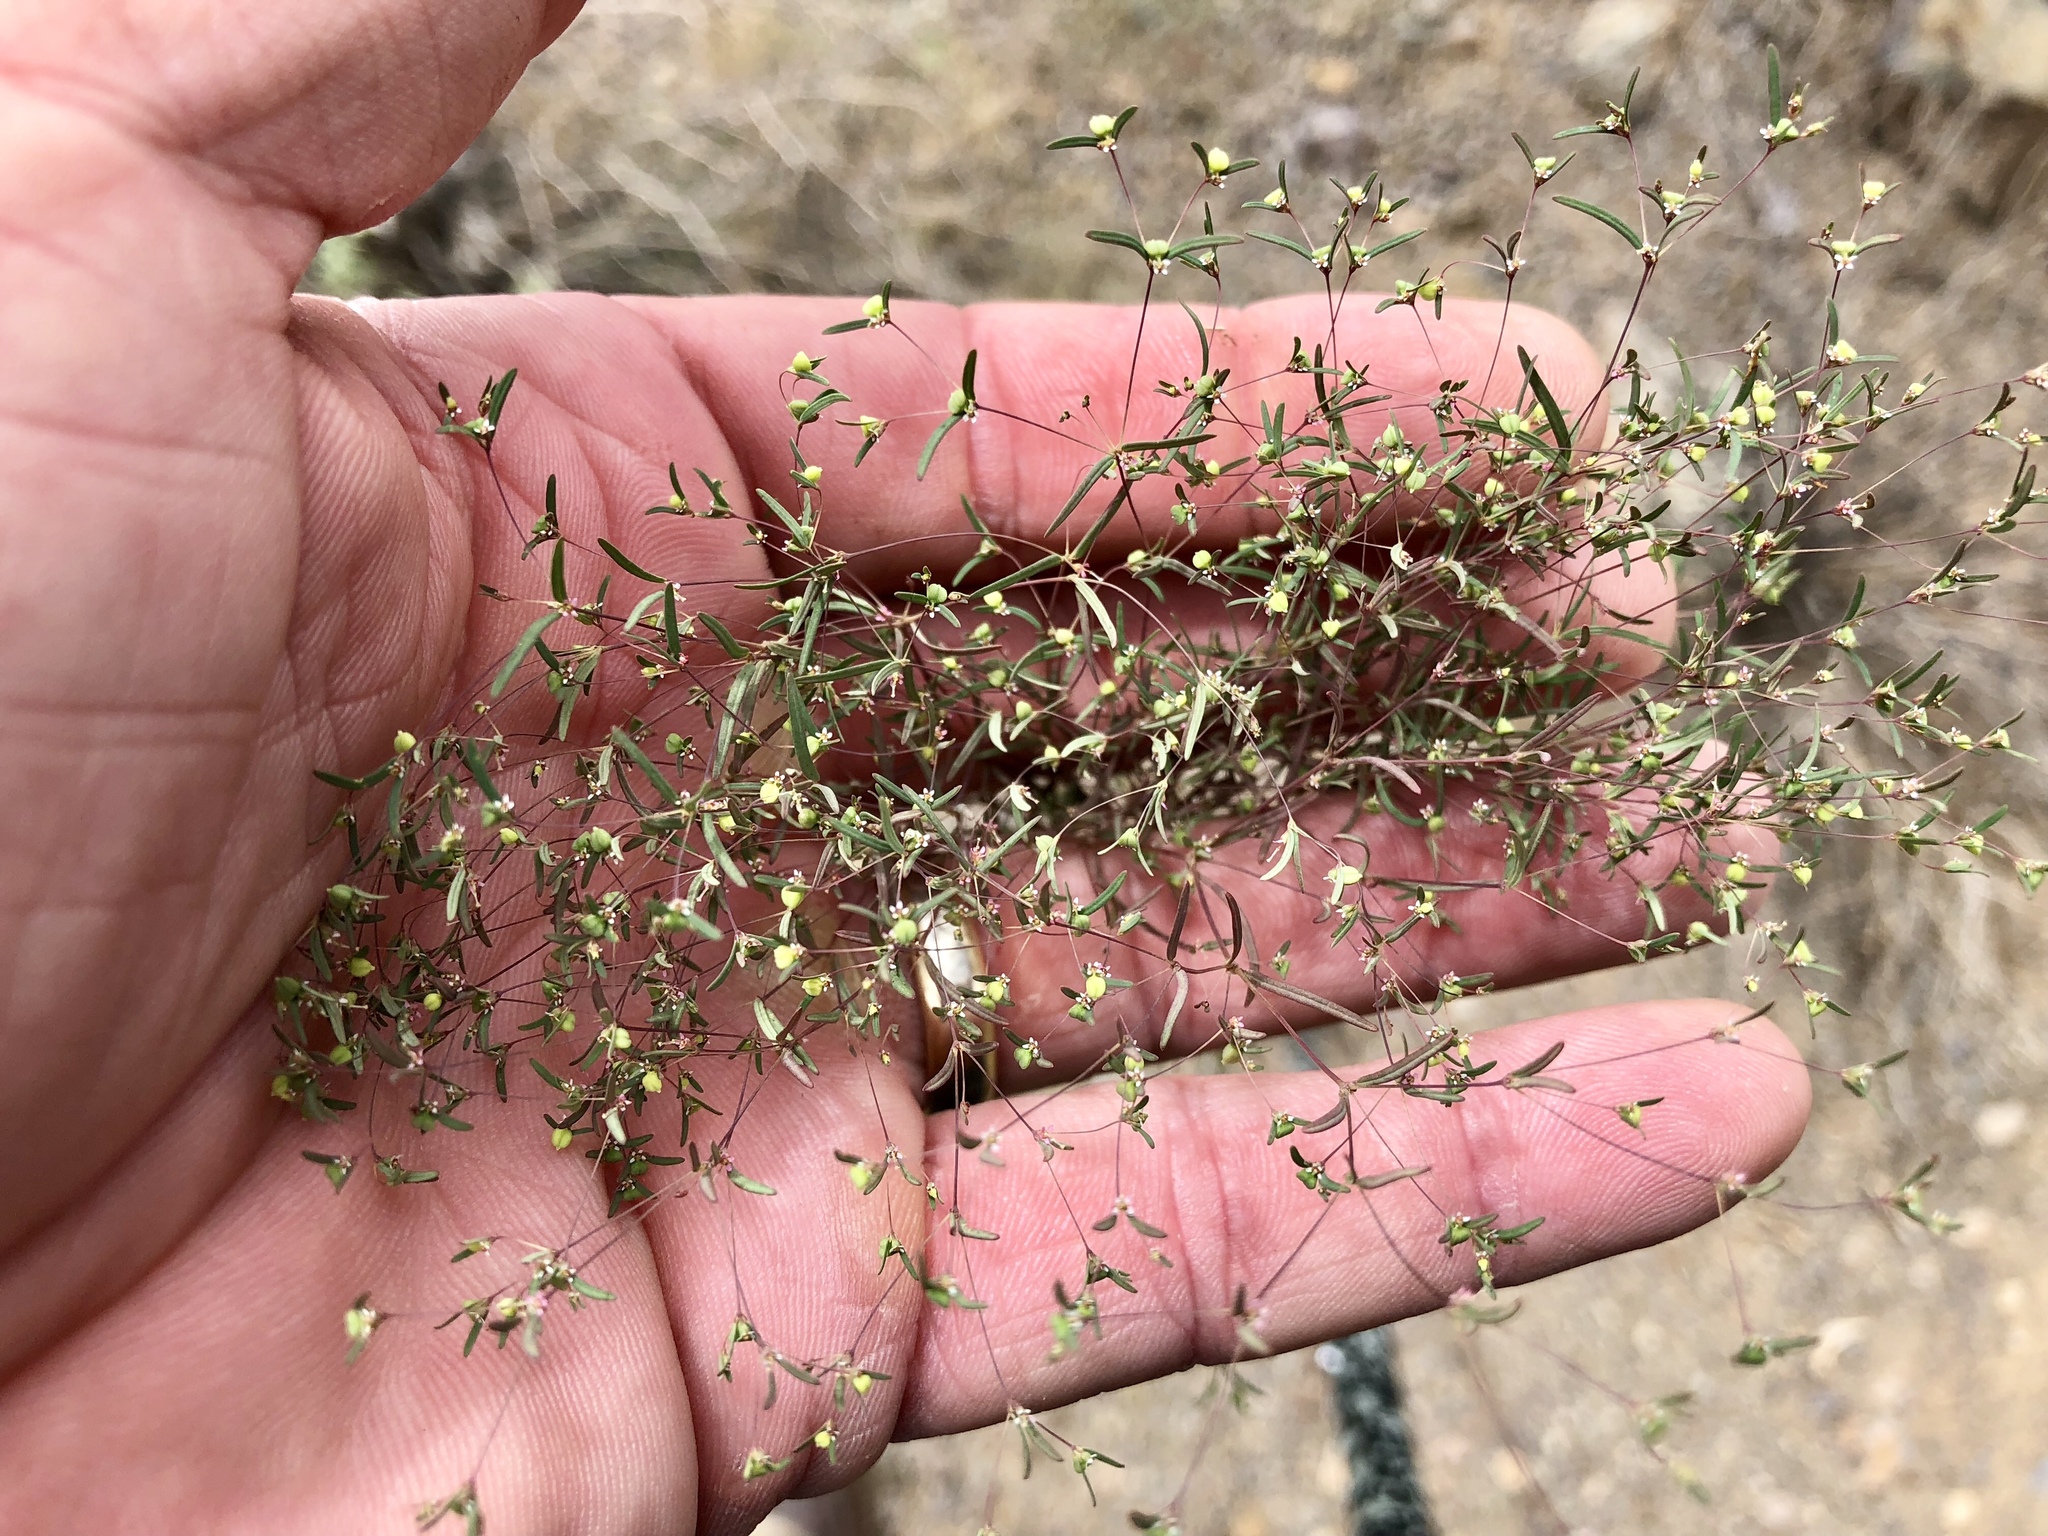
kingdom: Plantae
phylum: Tracheophyta
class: Magnoliopsida
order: Malpighiales
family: Euphorbiaceae
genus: Euphorbia
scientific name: Euphorbia gracillima
